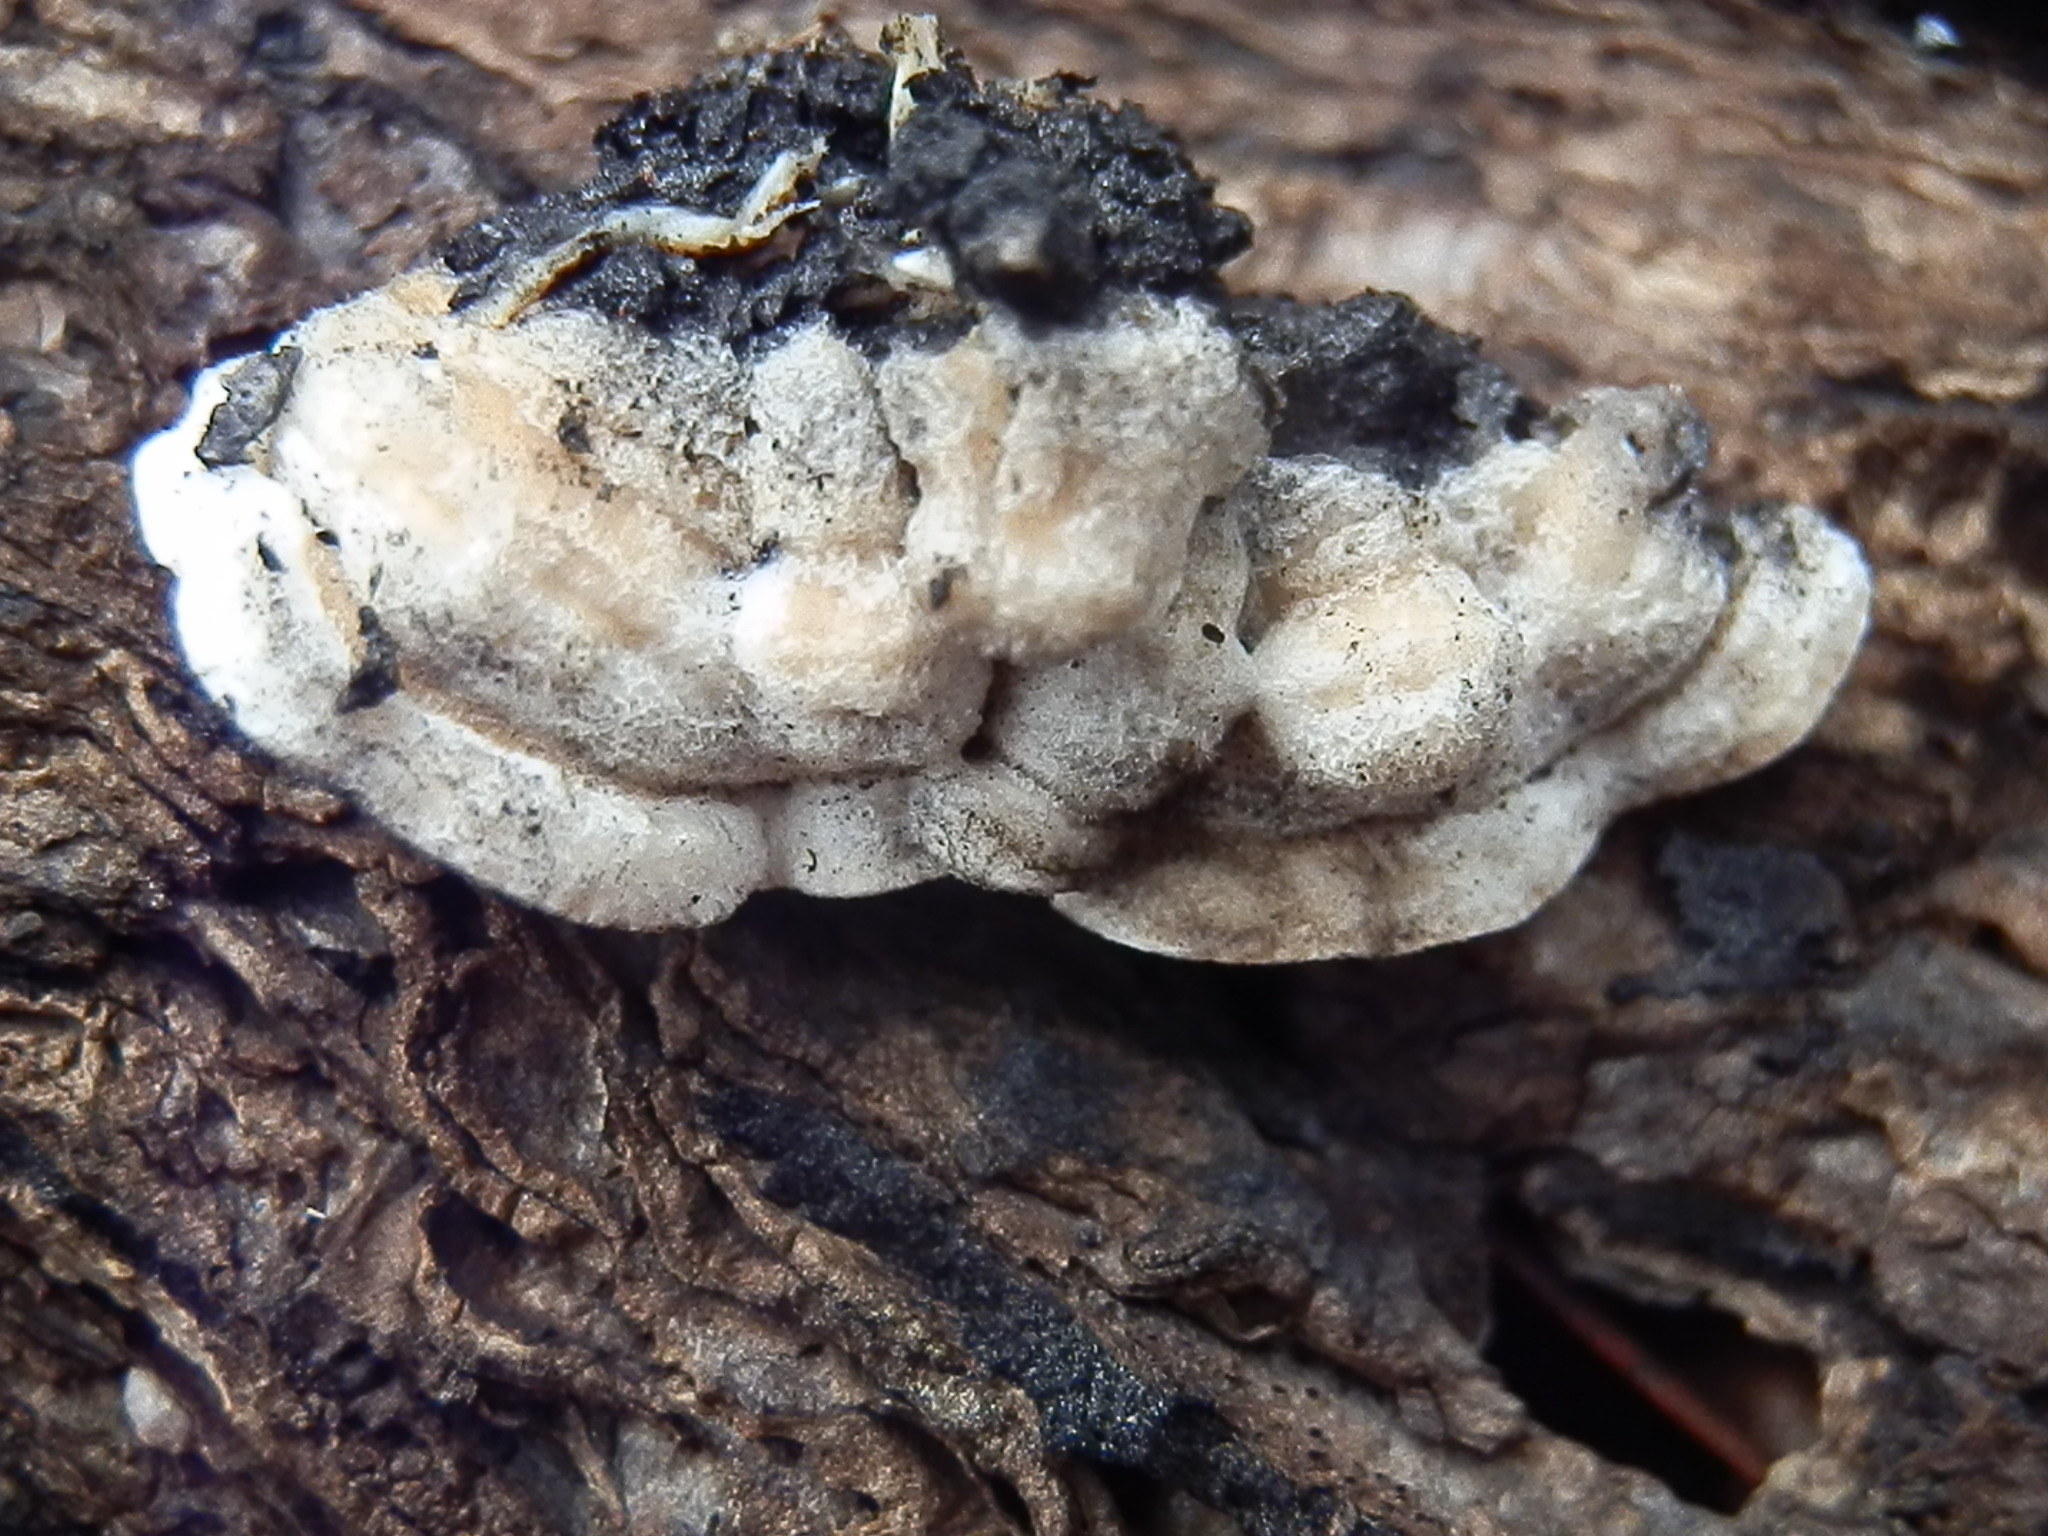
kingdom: Fungi
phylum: Basidiomycota
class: Agaricomycetes
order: Polyporales
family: Irpicaceae
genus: Byssomerulius
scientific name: Byssomerulius corium
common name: Netted crust
